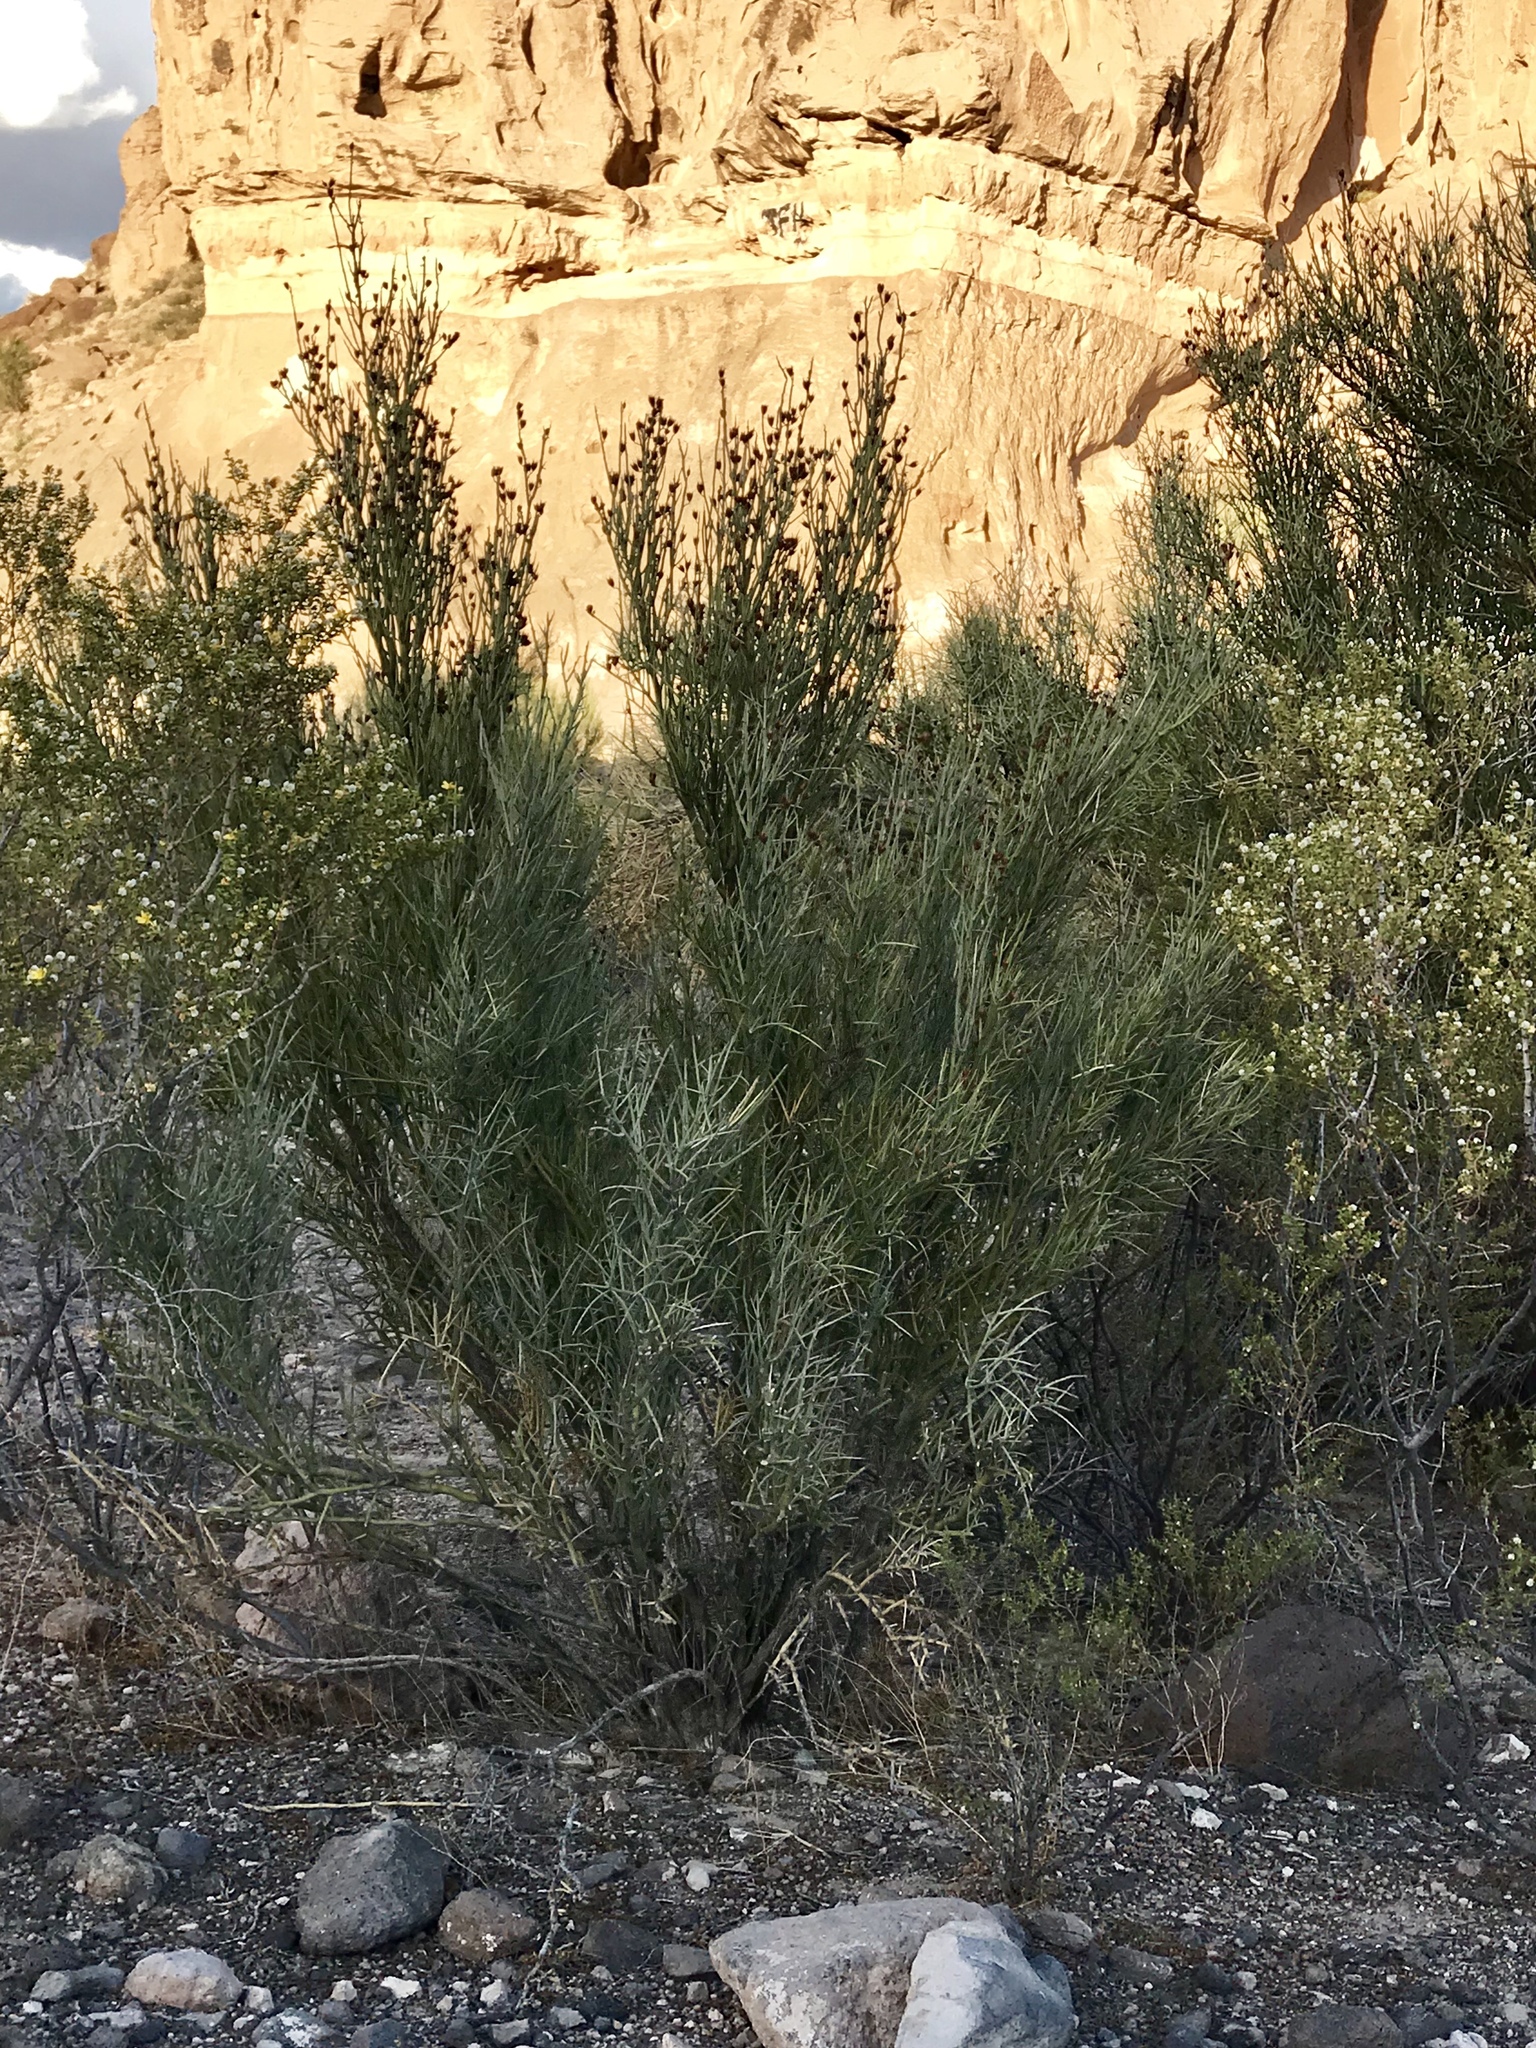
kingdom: Plantae
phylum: Tracheophyta
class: Magnoliopsida
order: Celastrales
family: Celastraceae
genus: Canotia
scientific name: Canotia holacantha
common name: Crucifixion thorns
